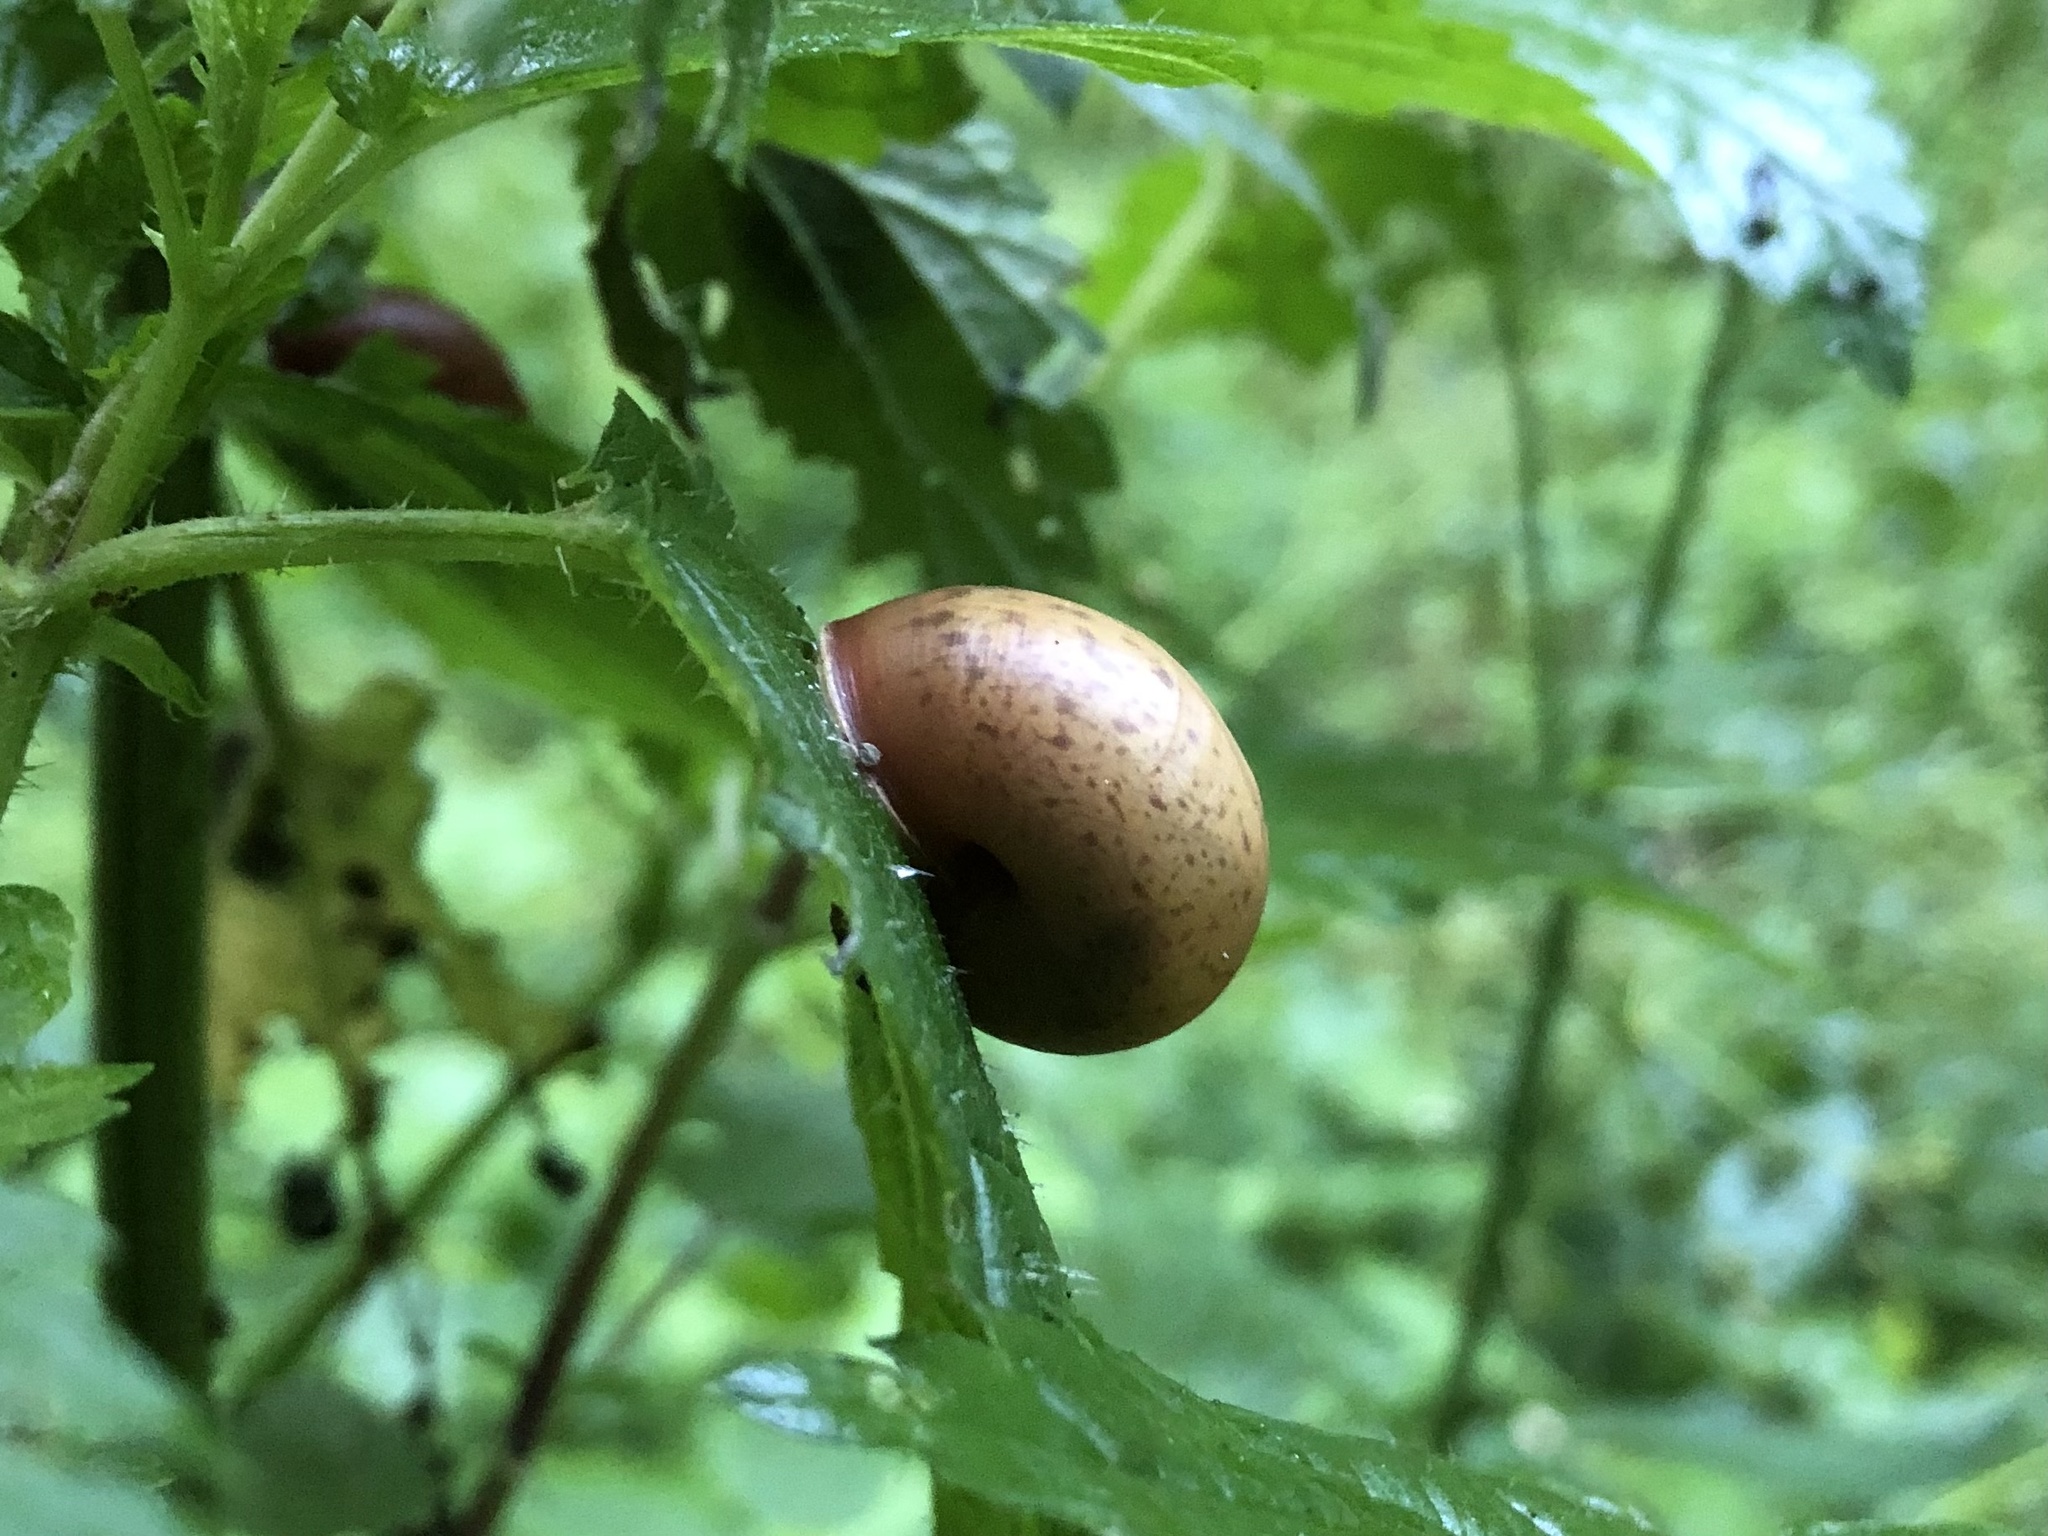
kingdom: Animalia
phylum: Mollusca
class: Gastropoda
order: Stylommatophora
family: Camaenidae
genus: Fruticicola
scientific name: Fruticicola fruticum
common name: Bush snail
